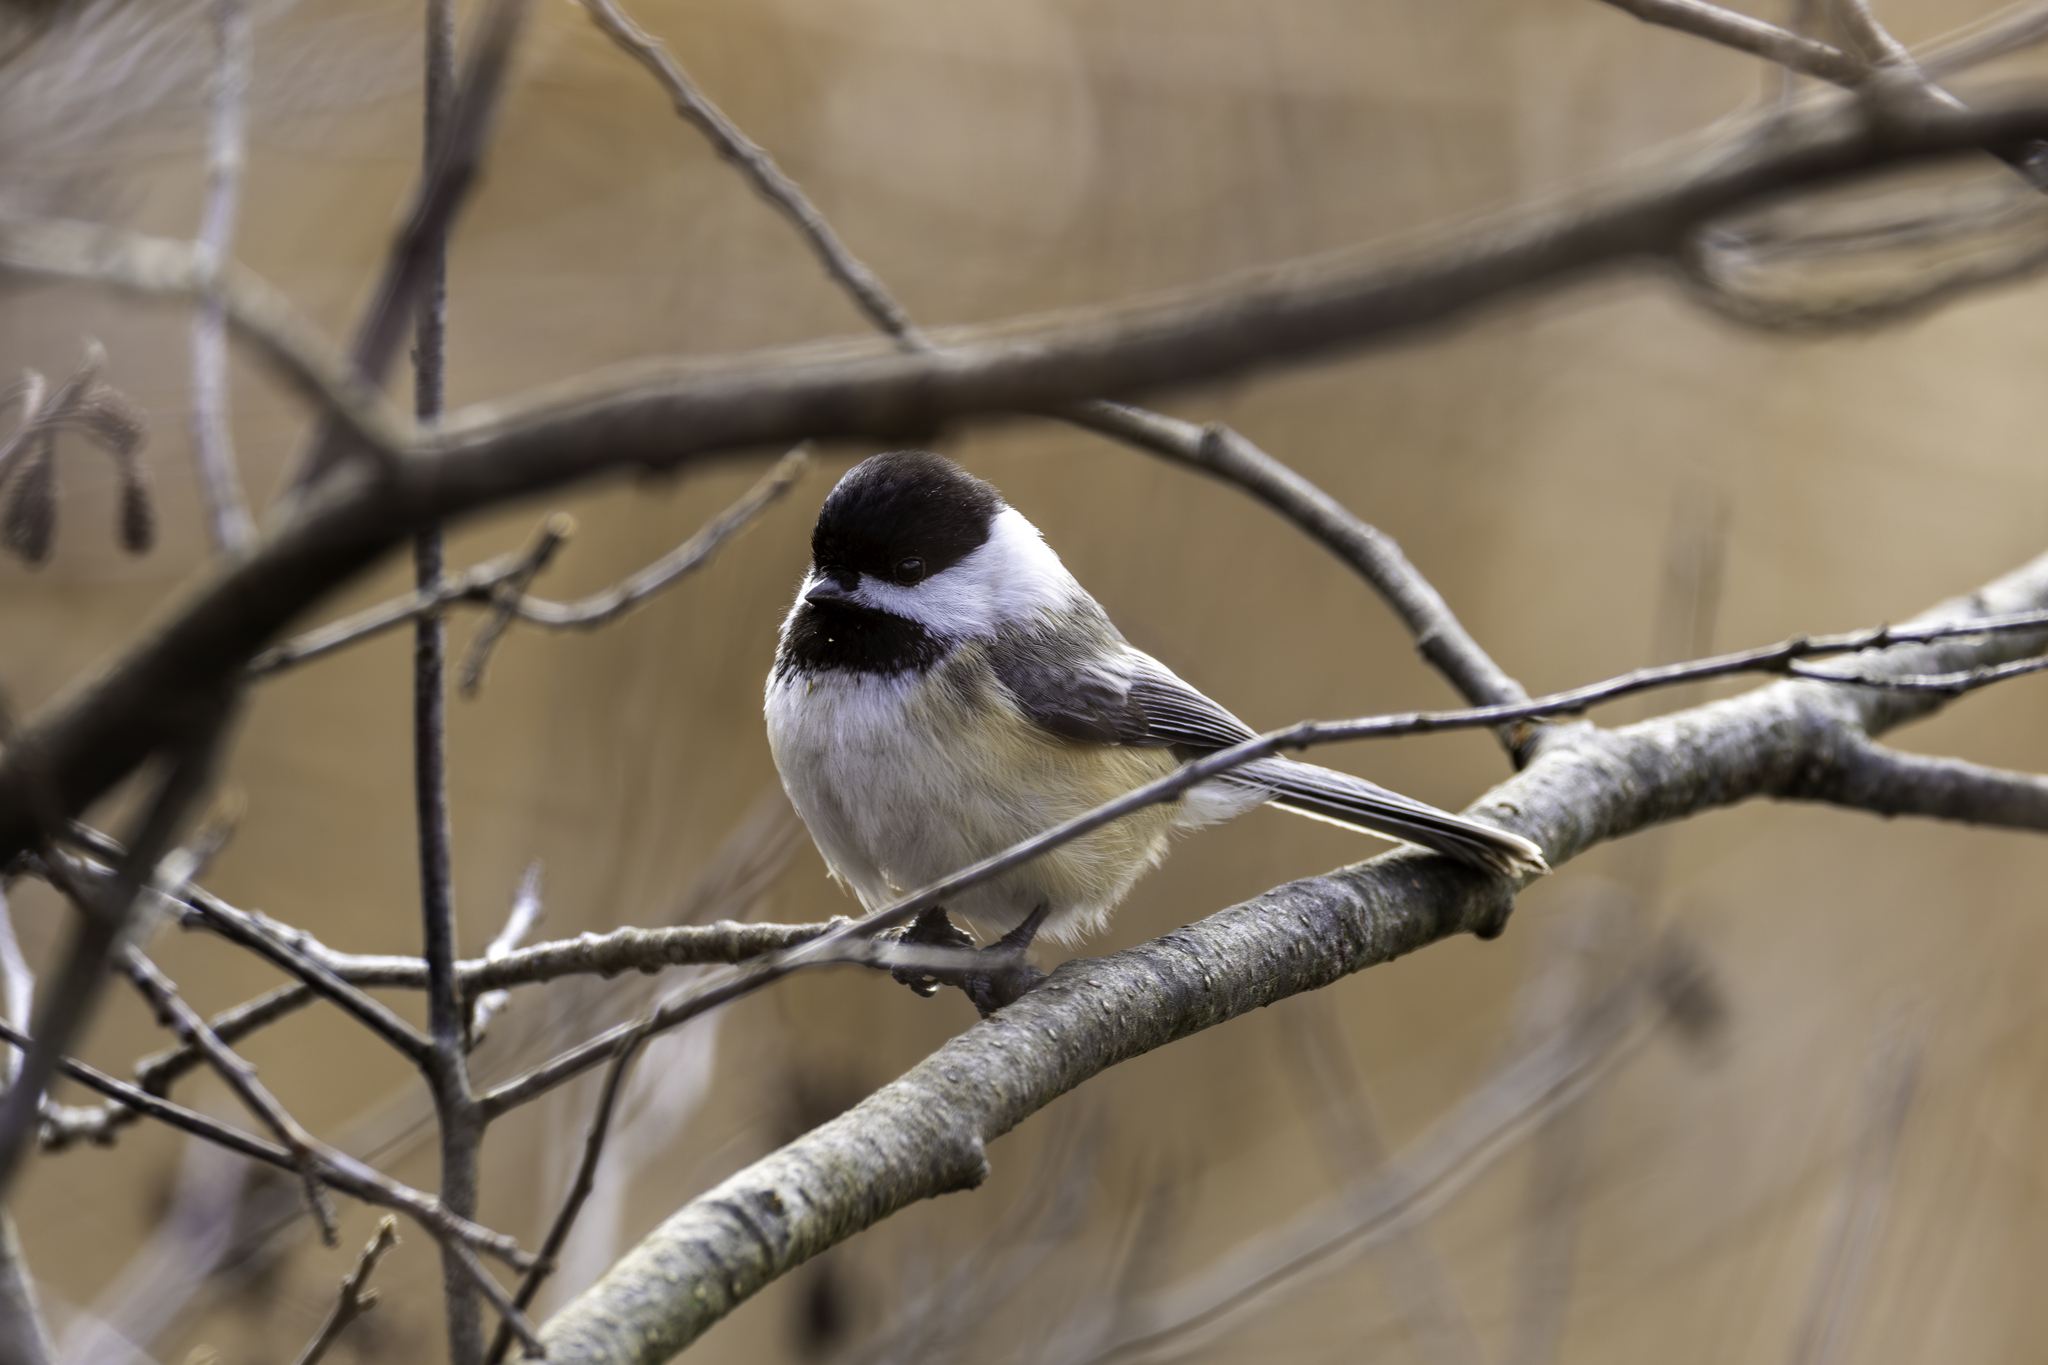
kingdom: Animalia
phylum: Chordata
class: Aves
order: Passeriformes
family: Paridae
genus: Poecile
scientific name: Poecile atricapillus
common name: Black-capped chickadee
